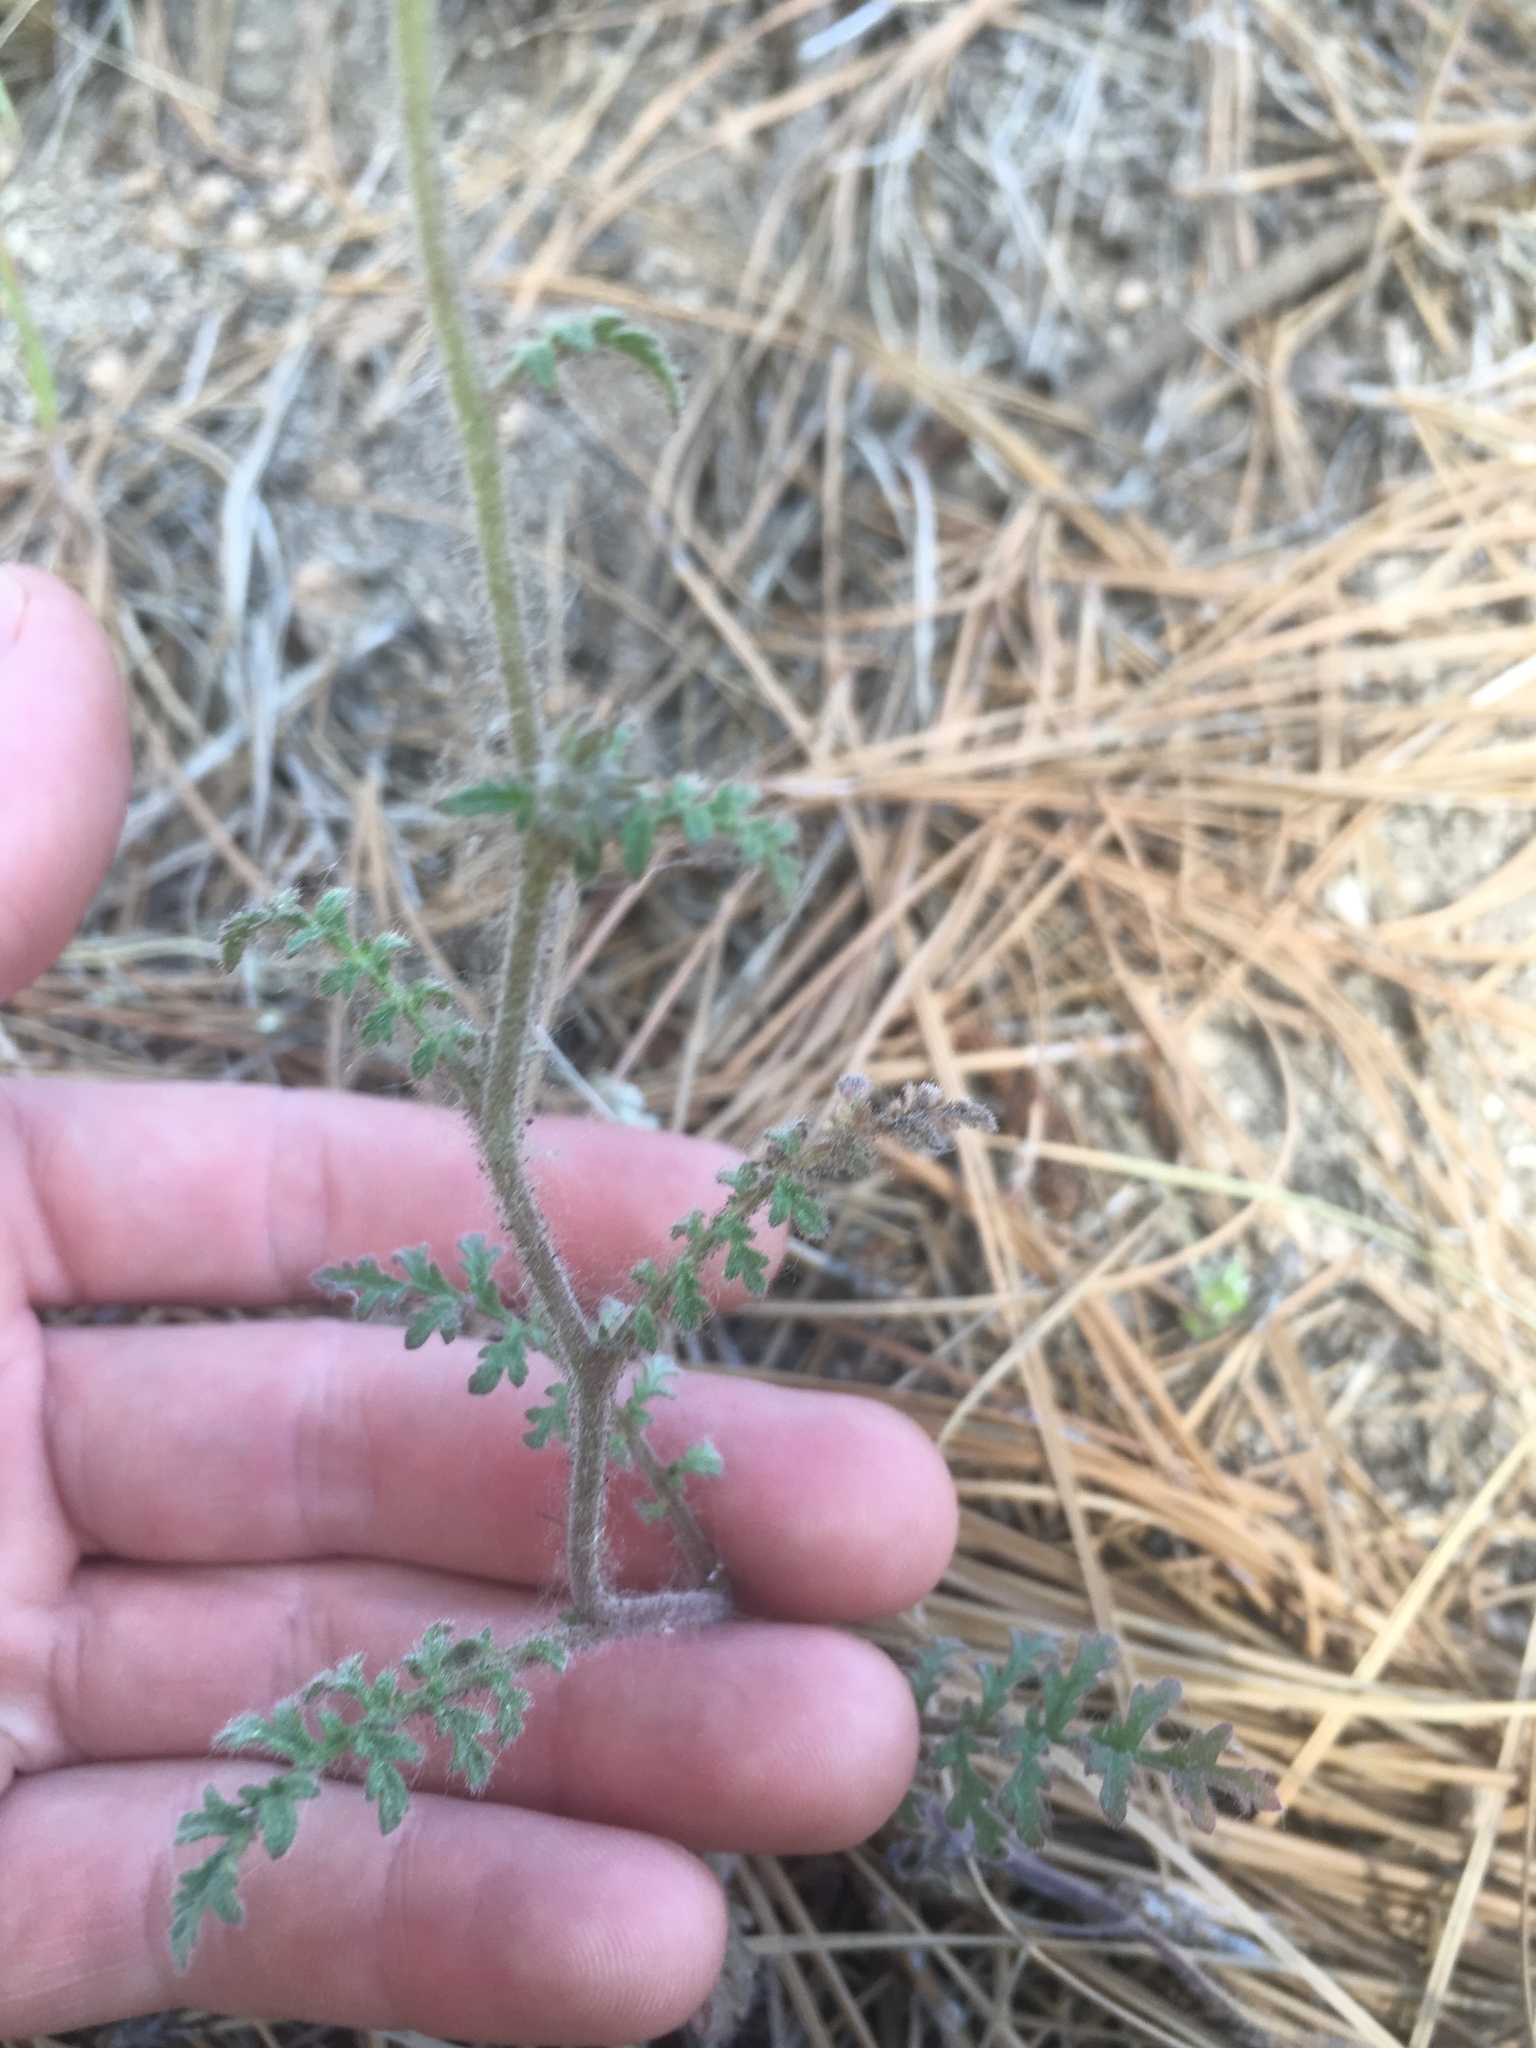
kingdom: Plantae
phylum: Tracheophyta
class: Magnoliopsida
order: Boraginales
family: Hydrophyllaceae
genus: Phacelia
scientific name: Phacelia vallis-mortae
